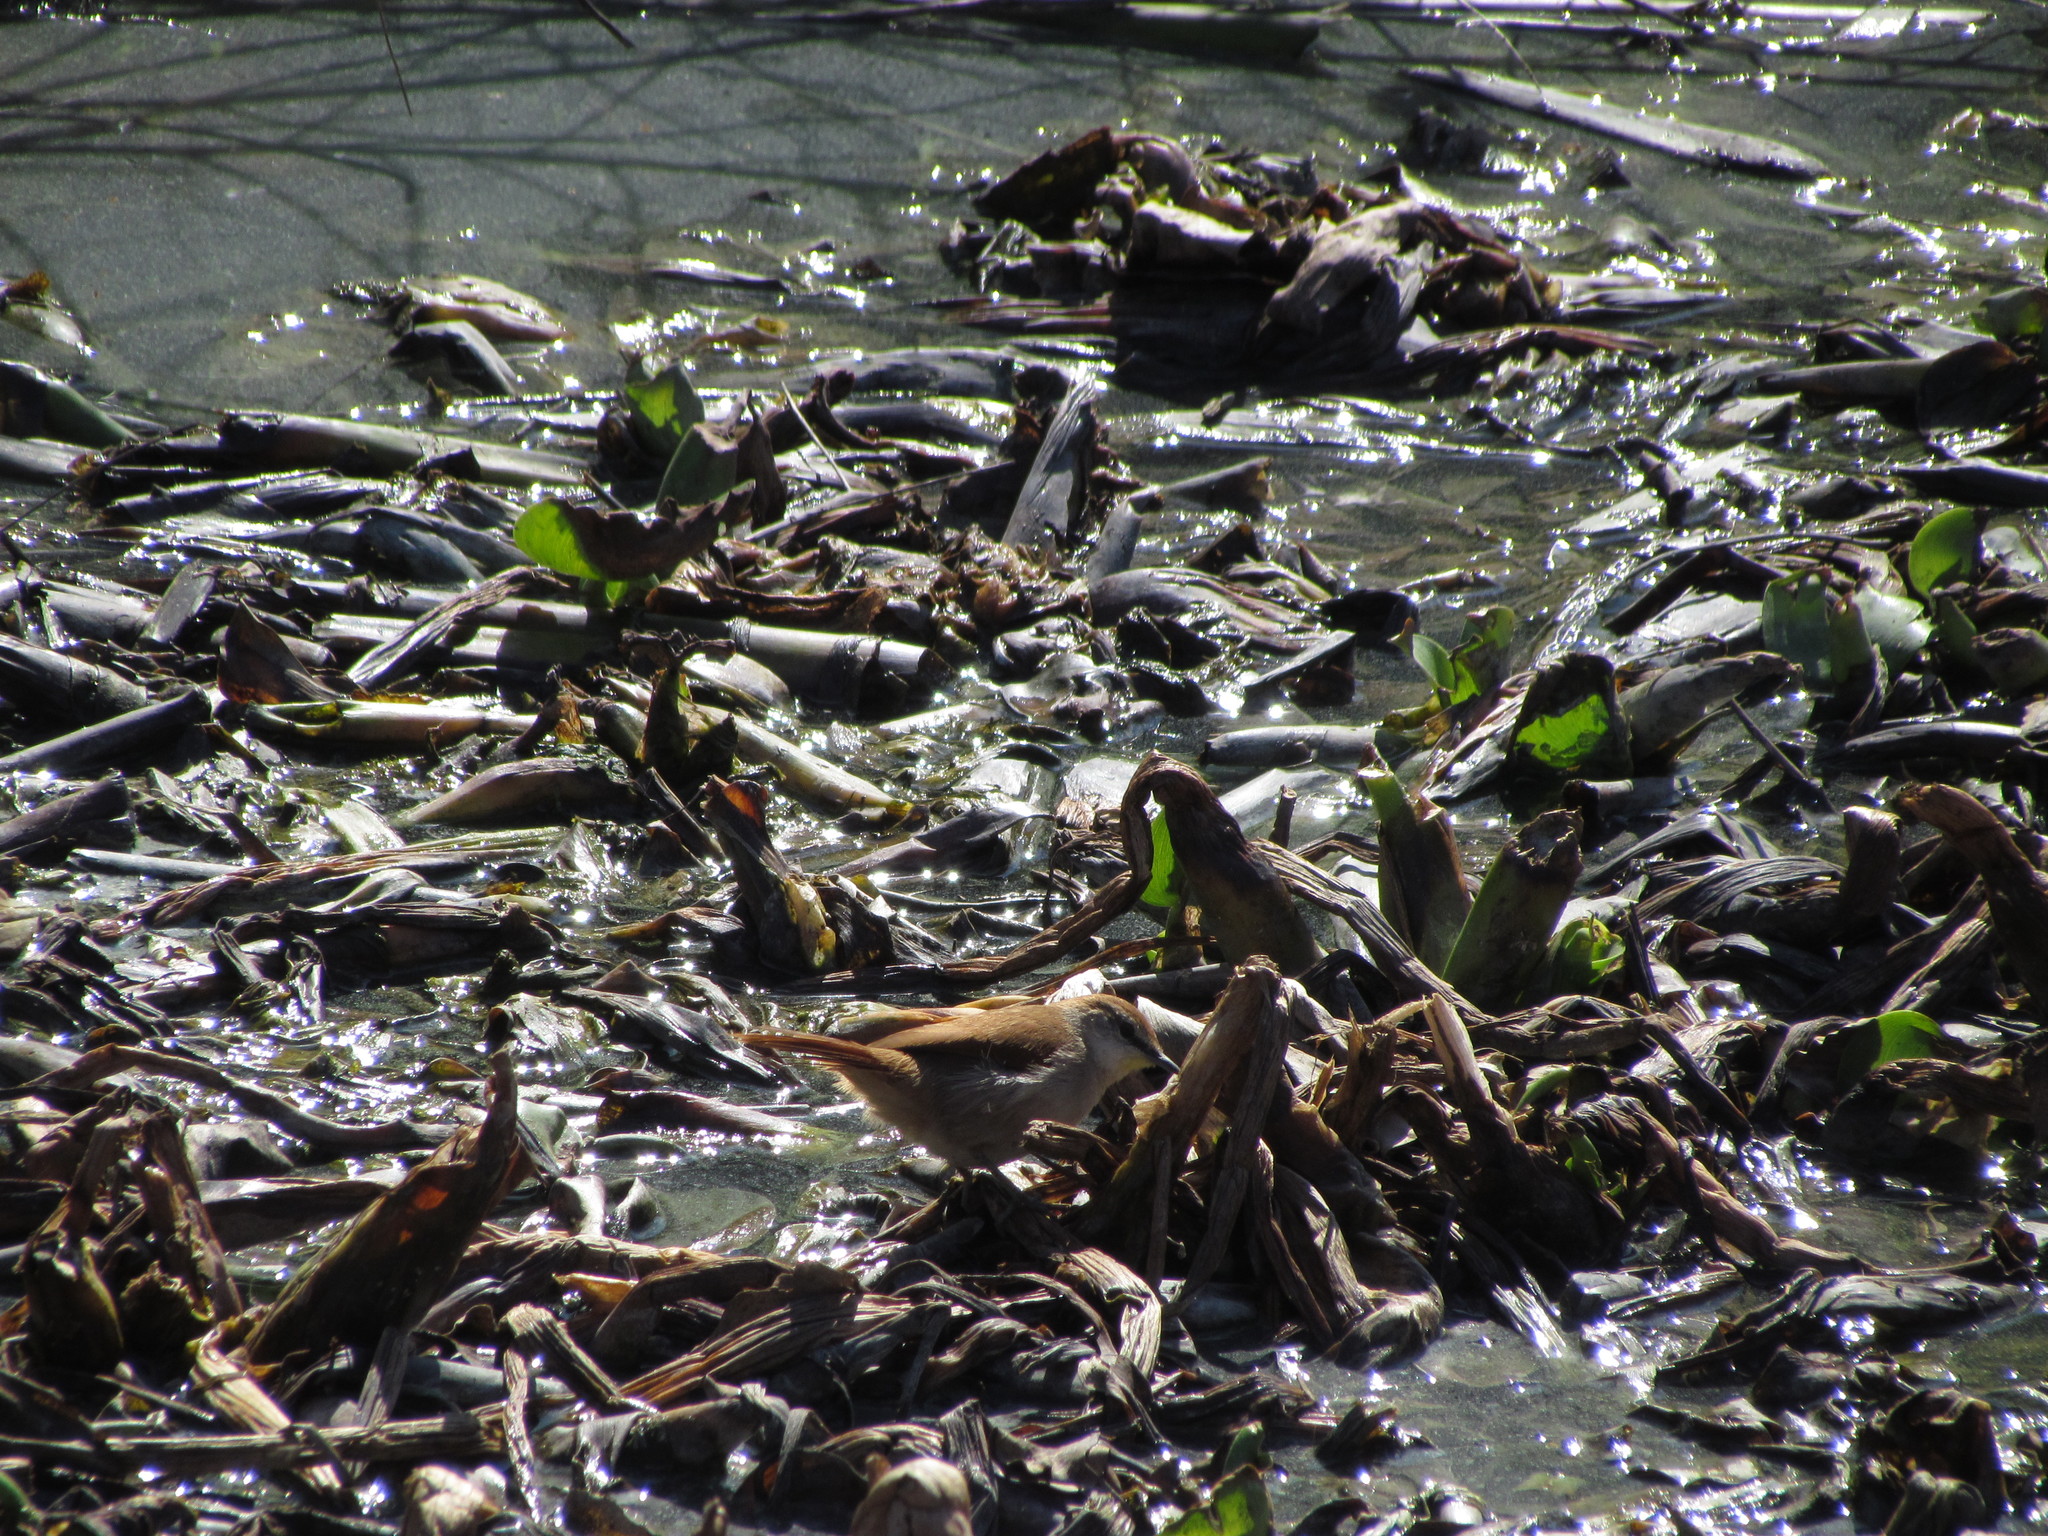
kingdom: Animalia
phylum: Chordata
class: Aves
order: Passeriformes
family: Furnariidae
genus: Certhiaxis
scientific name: Certhiaxis cinnamomeus
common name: Yellow-chinned spinetail
